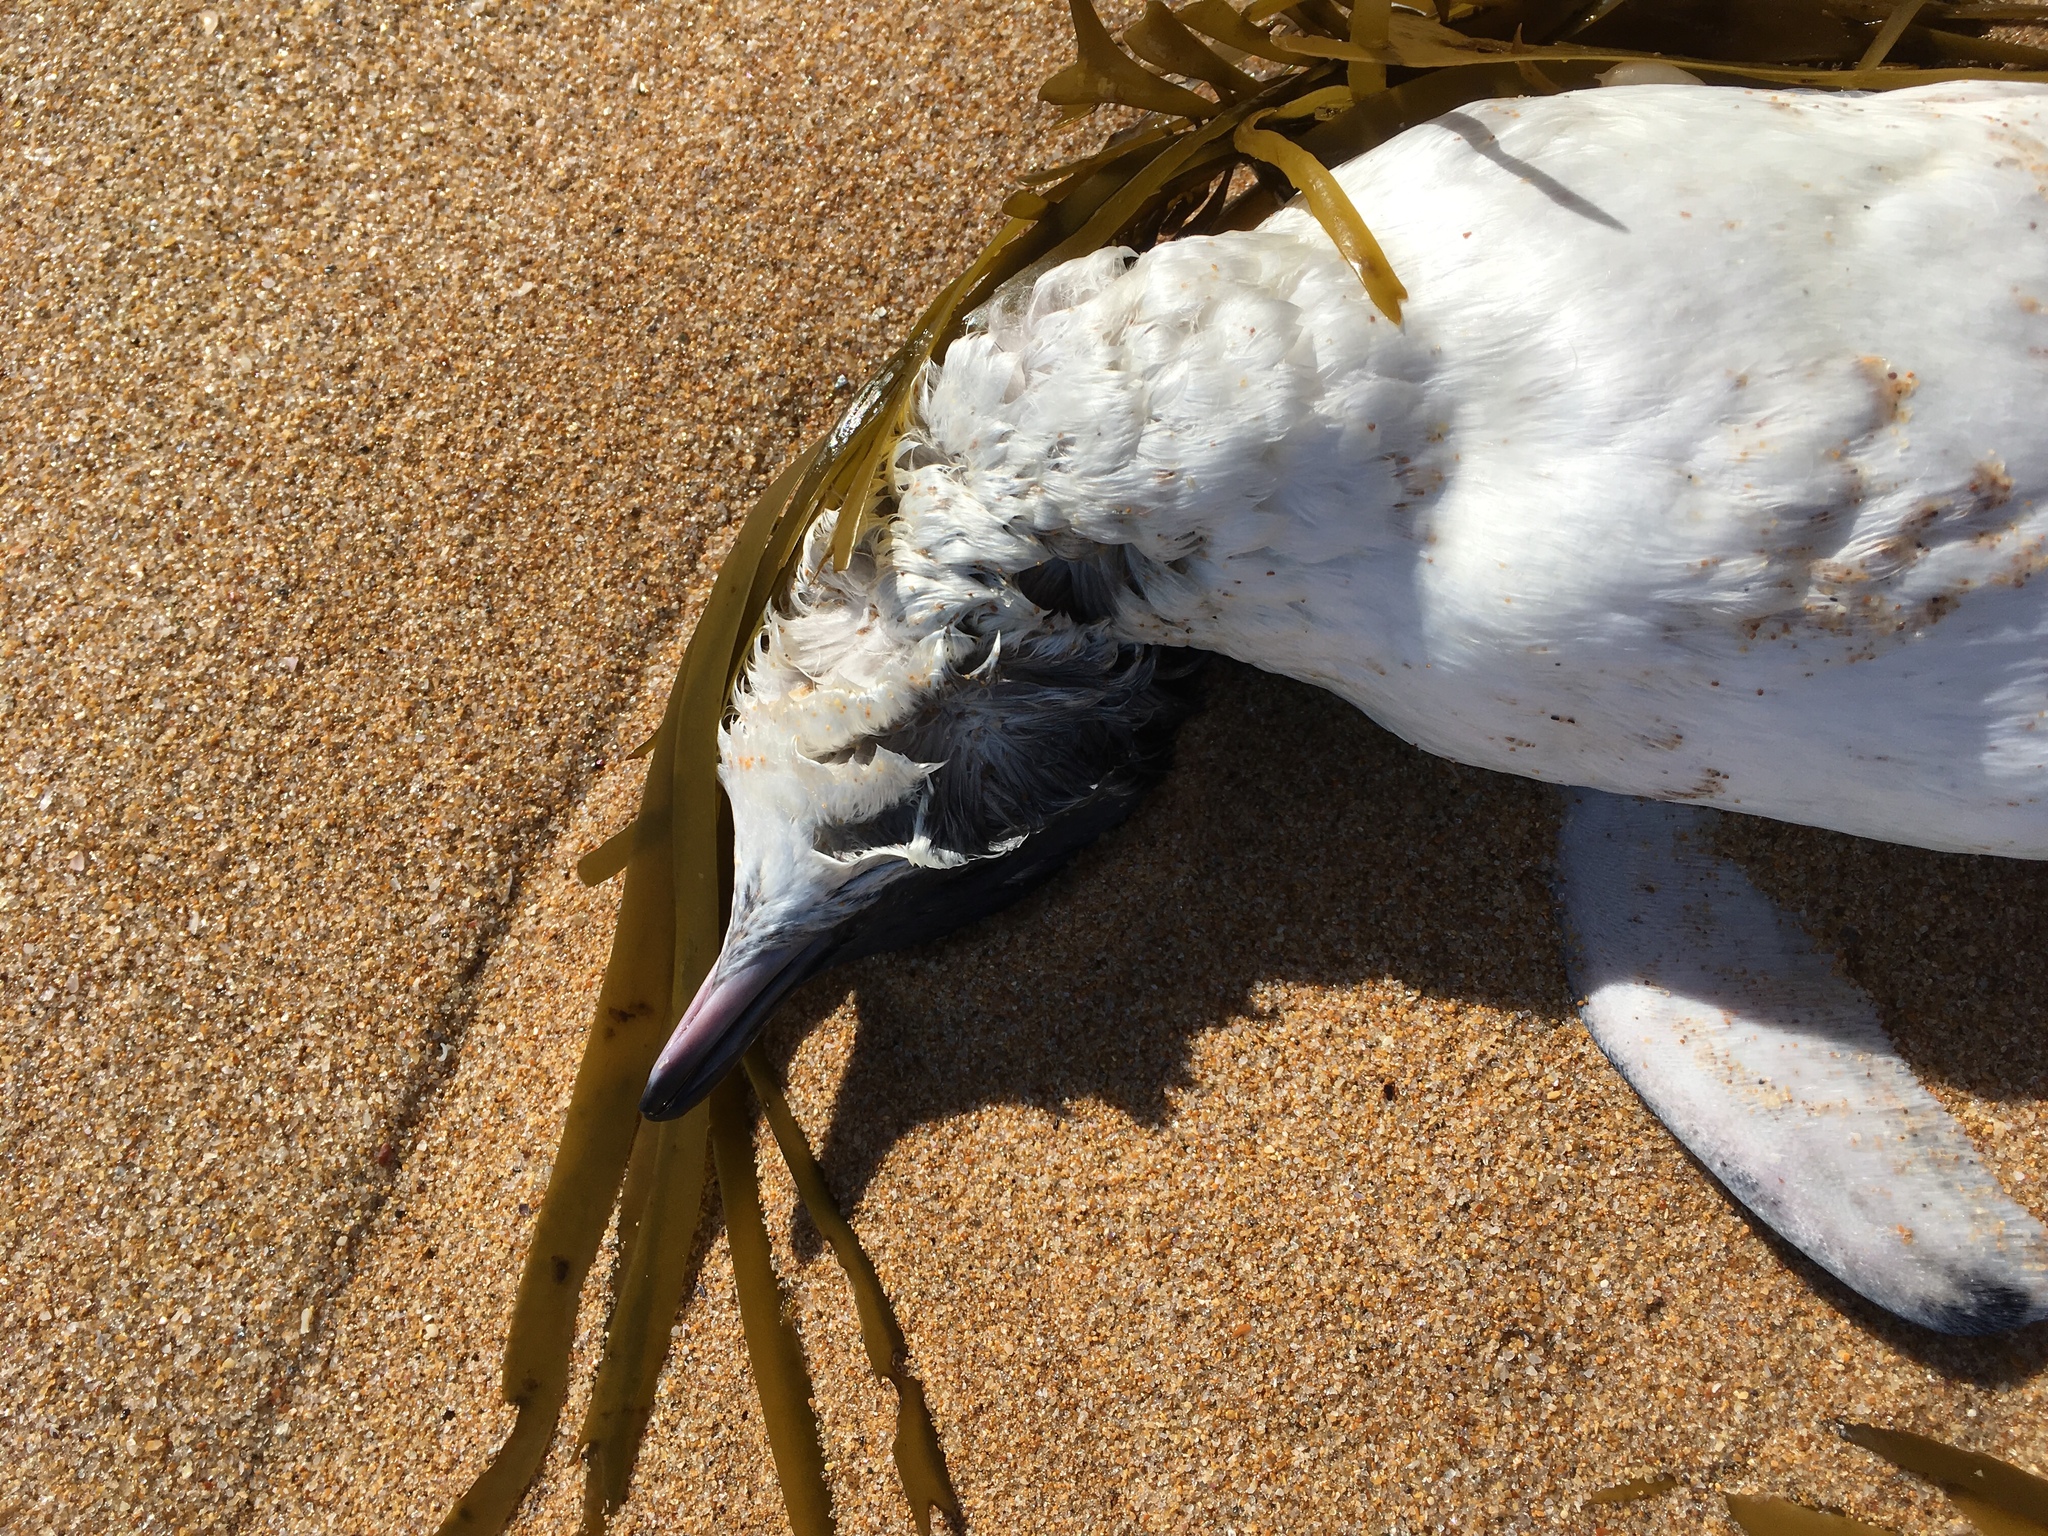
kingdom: Animalia
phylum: Chordata
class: Aves
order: Sphenisciformes
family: Spheniscidae
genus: Eudyptula
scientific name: Eudyptula minor
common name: Little penguin
